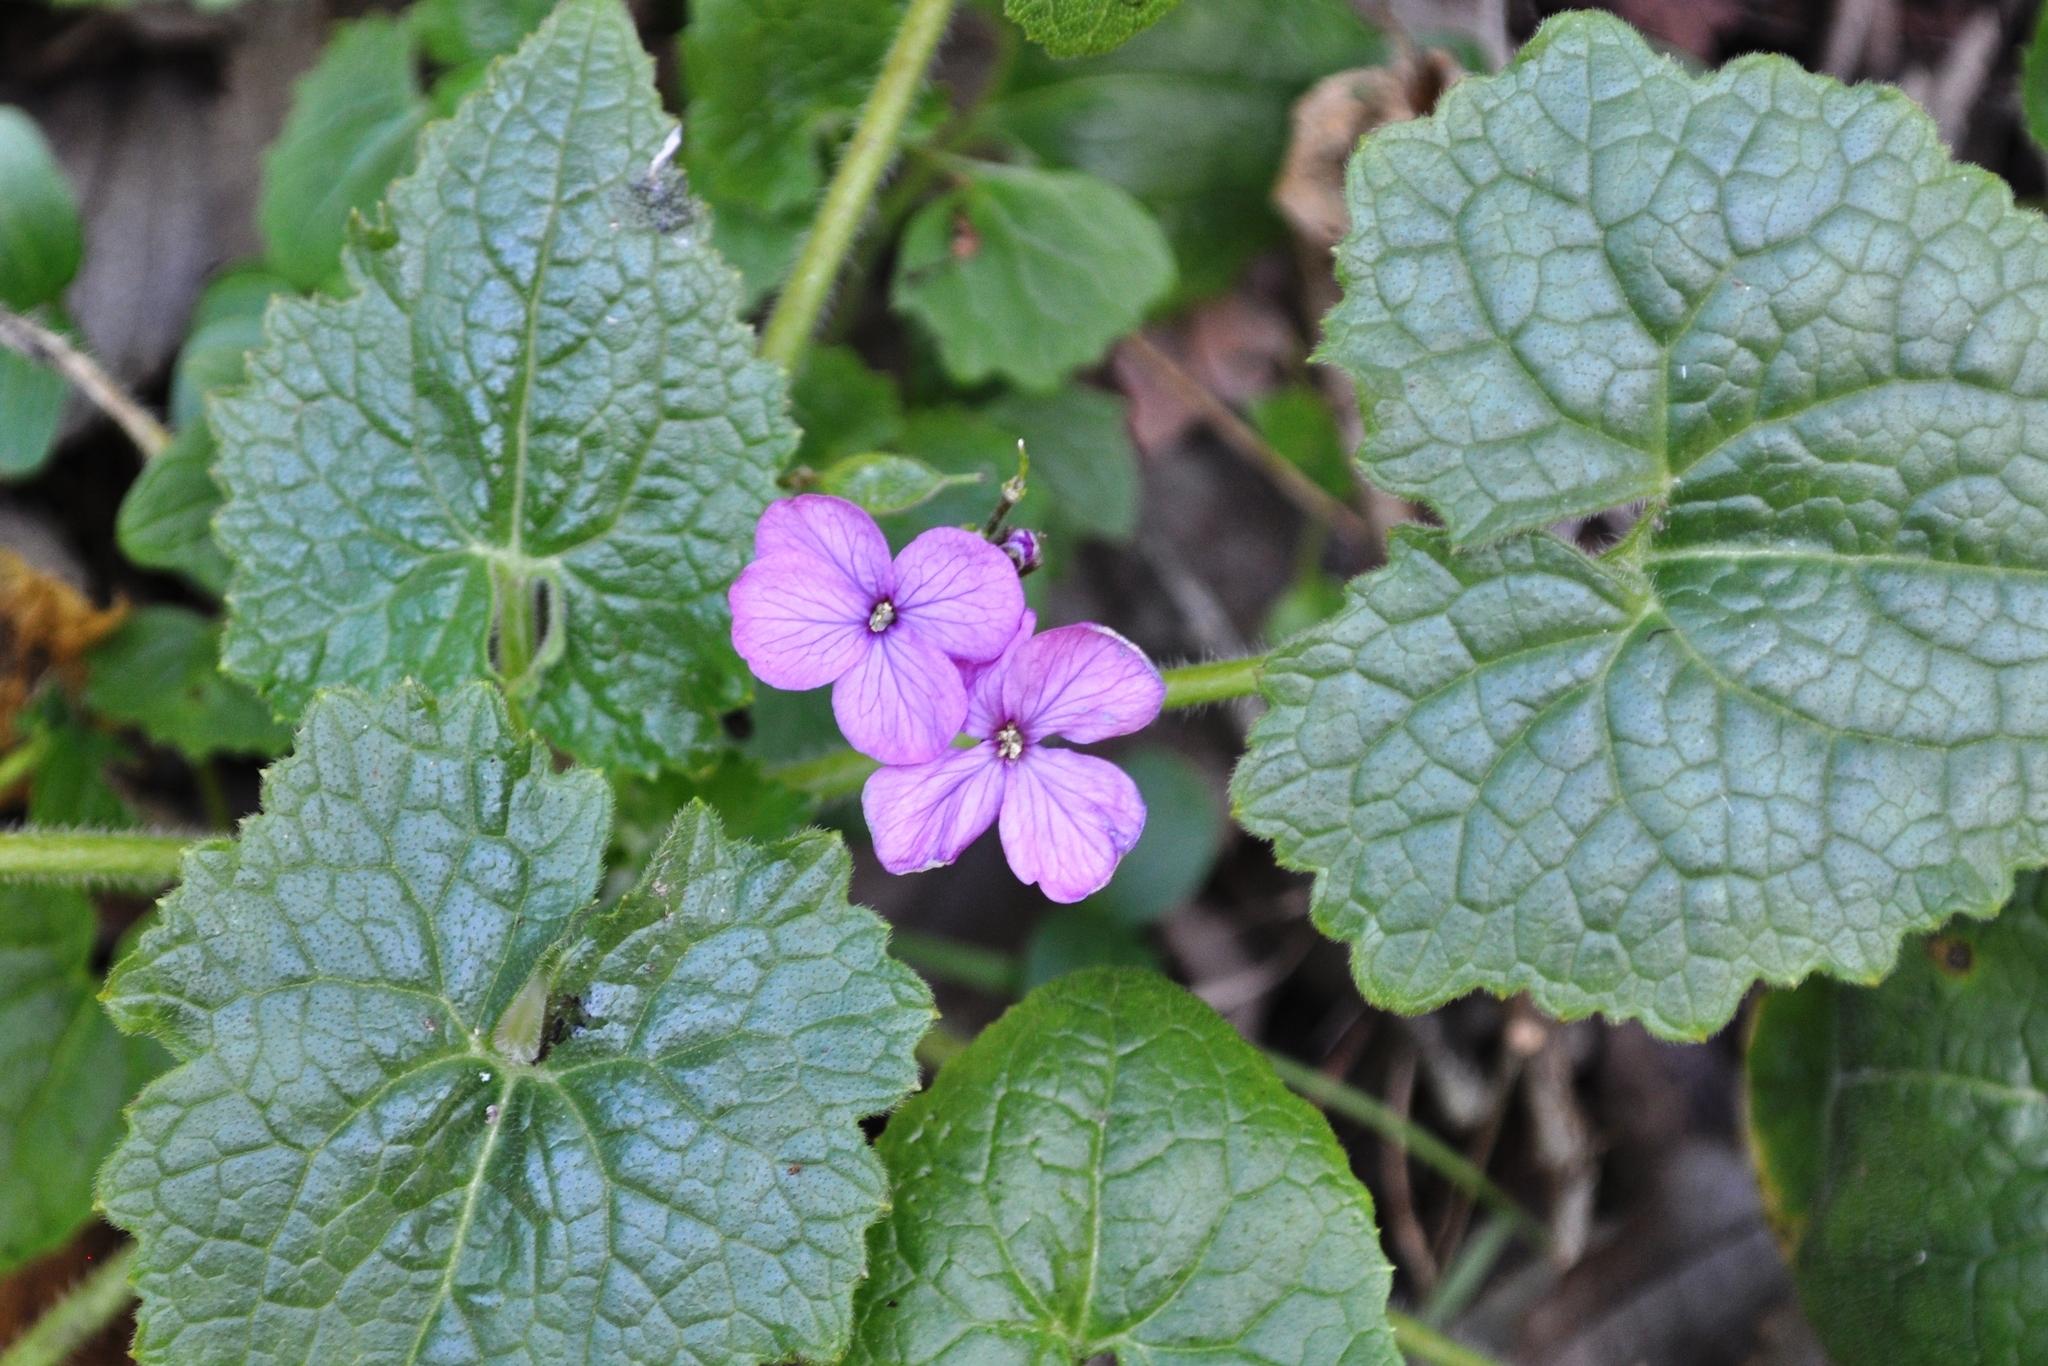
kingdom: Plantae
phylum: Tracheophyta
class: Magnoliopsida
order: Brassicales
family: Brassicaceae
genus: Lunaria
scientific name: Lunaria annua
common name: Honesty
